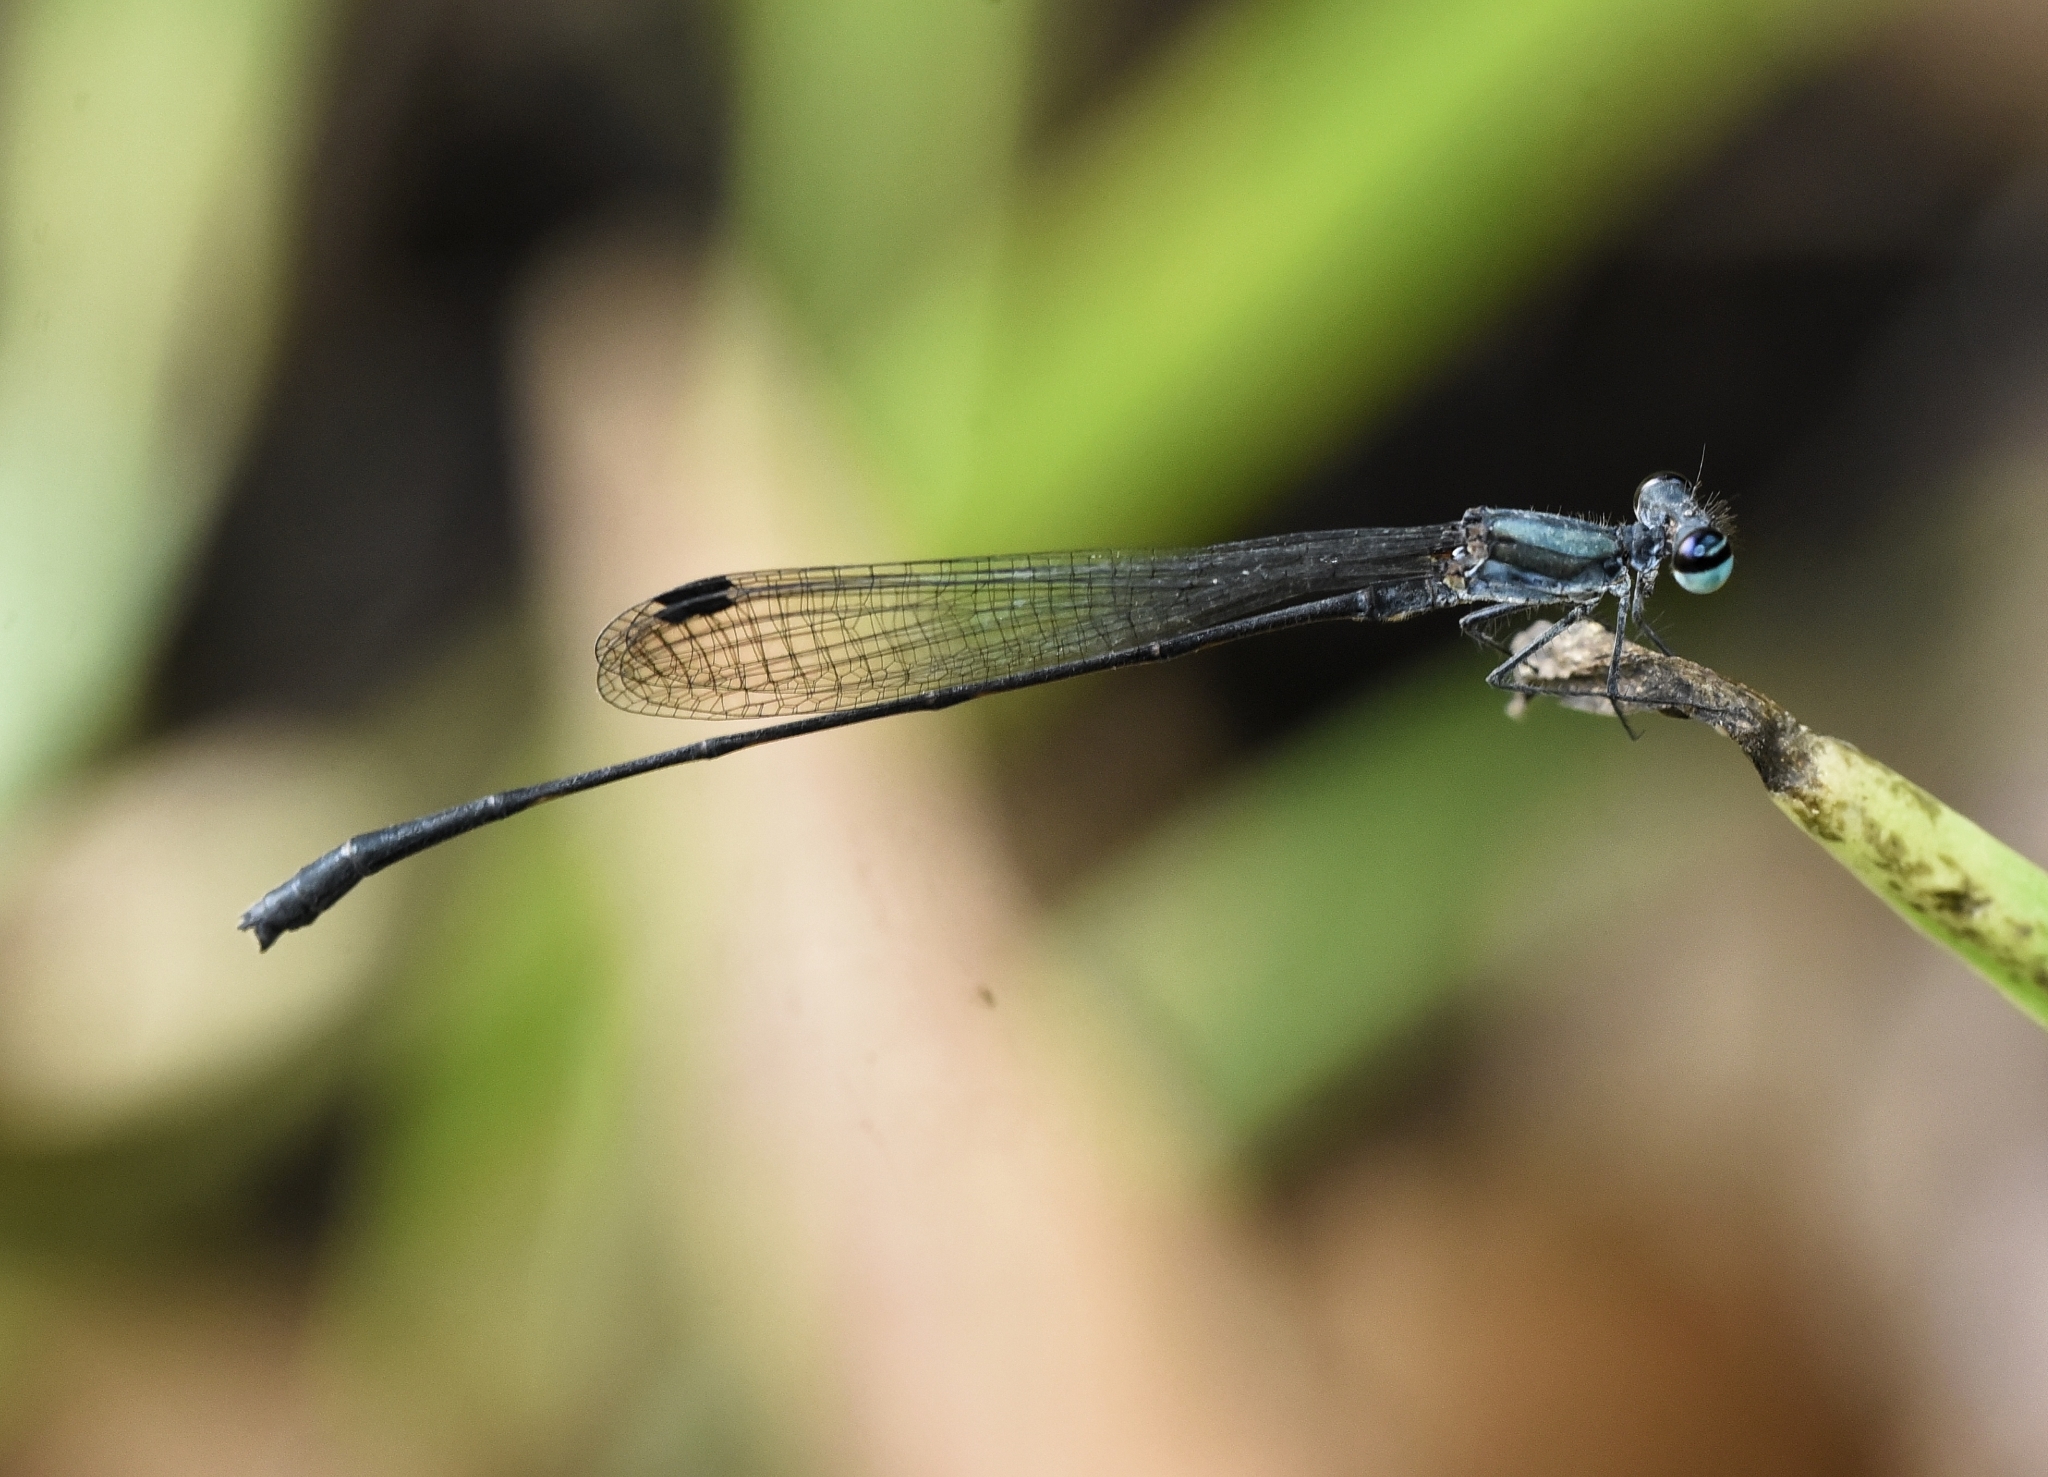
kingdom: Animalia
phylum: Arthropoda
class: Insecta
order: Odonata
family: Platycnemididae
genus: Elattoneura
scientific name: Elattoneura tetrica
